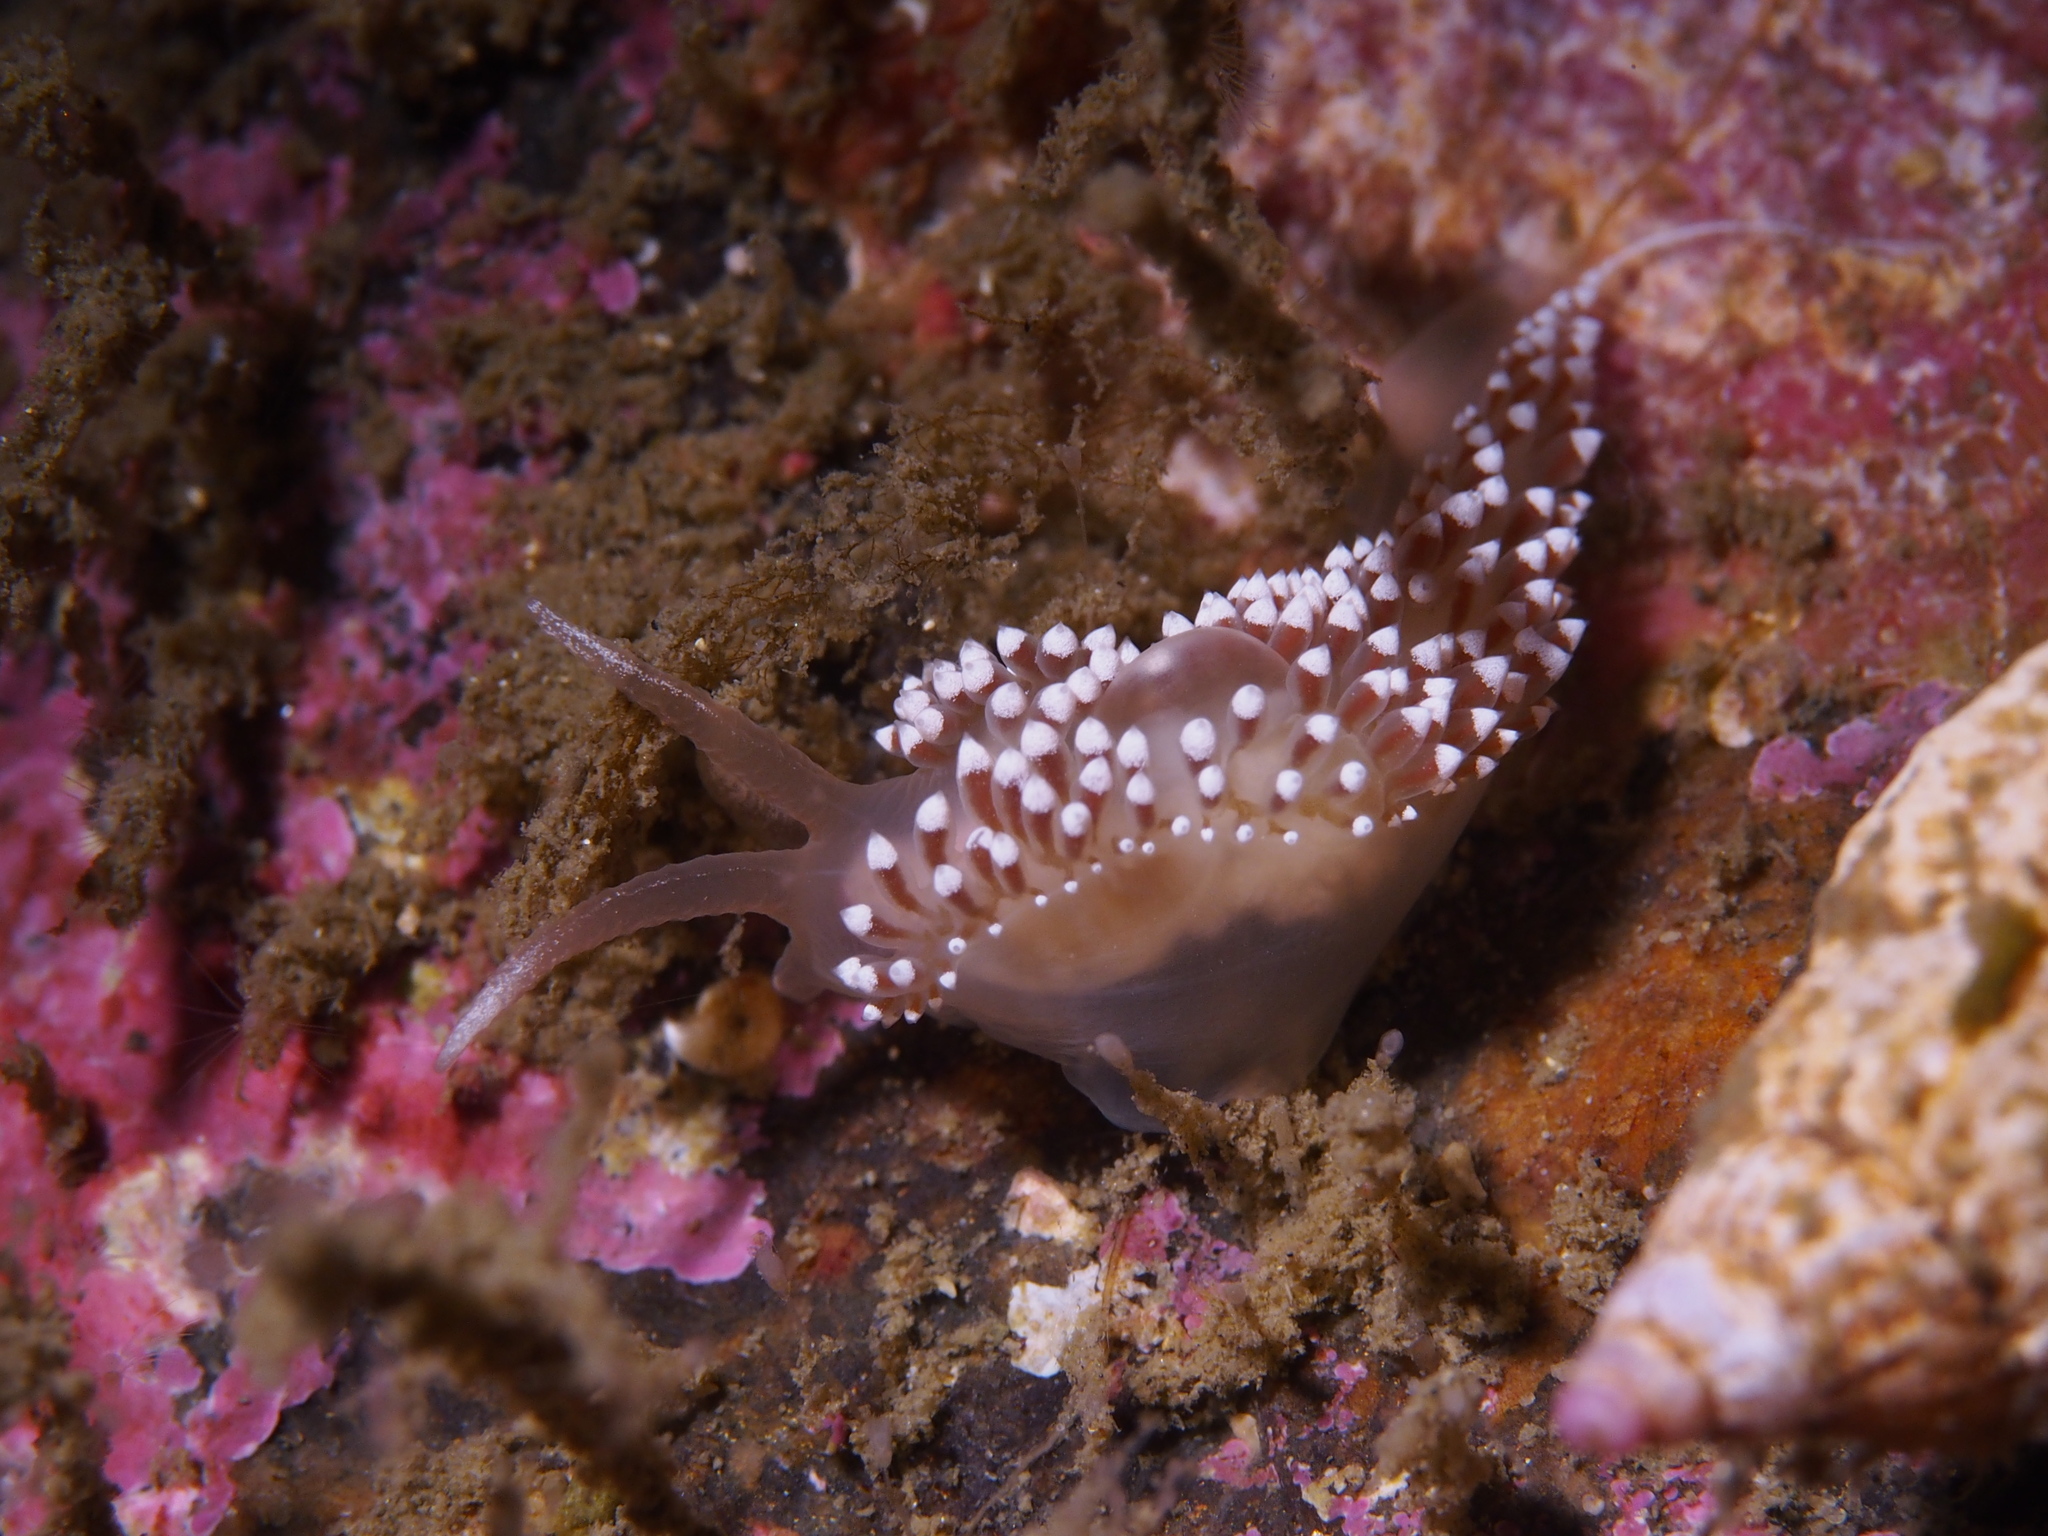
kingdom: Animalia
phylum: Mollusca
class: Gastropoda
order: Nudibranchia
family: Coryphellidae
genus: Coryphella
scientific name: Coryphella verrucosa
